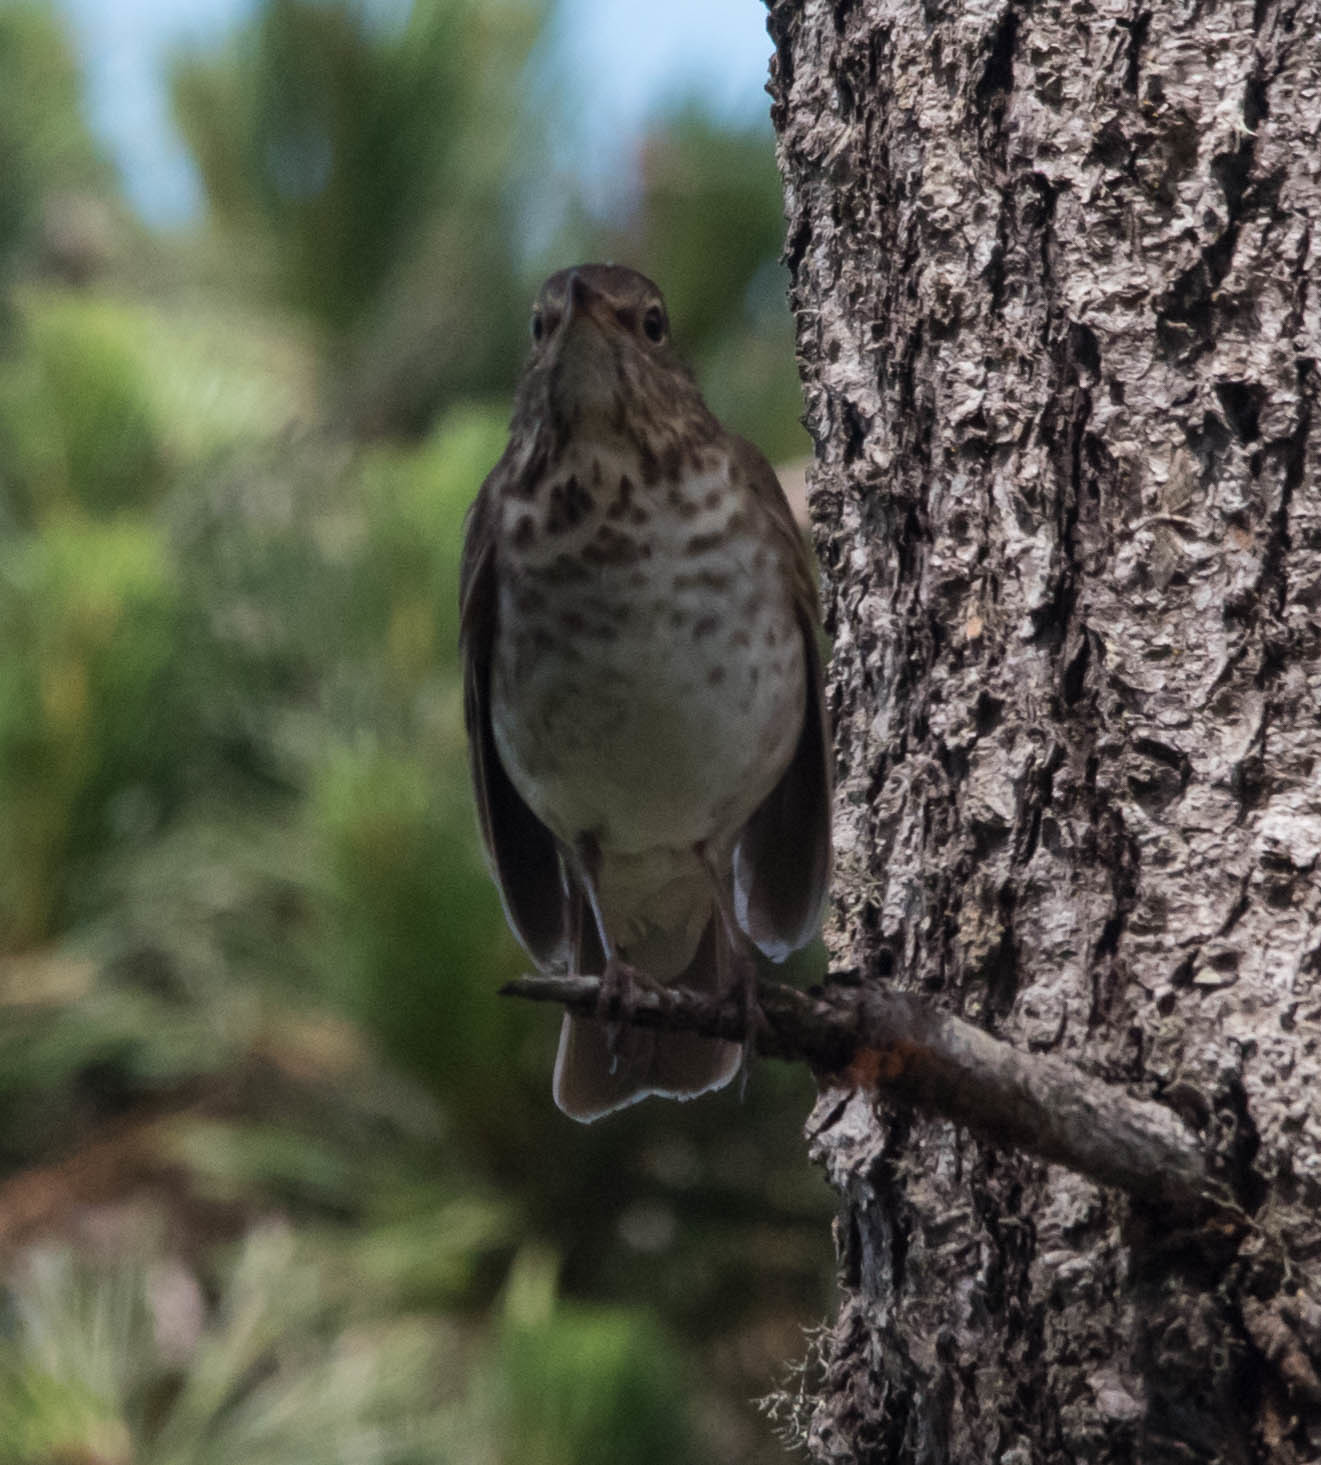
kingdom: Animalia
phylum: Chordata
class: Aves
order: Passeriformes
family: Turdidae
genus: Catharus
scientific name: Catharus ustulatus
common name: Swainson's thrush
